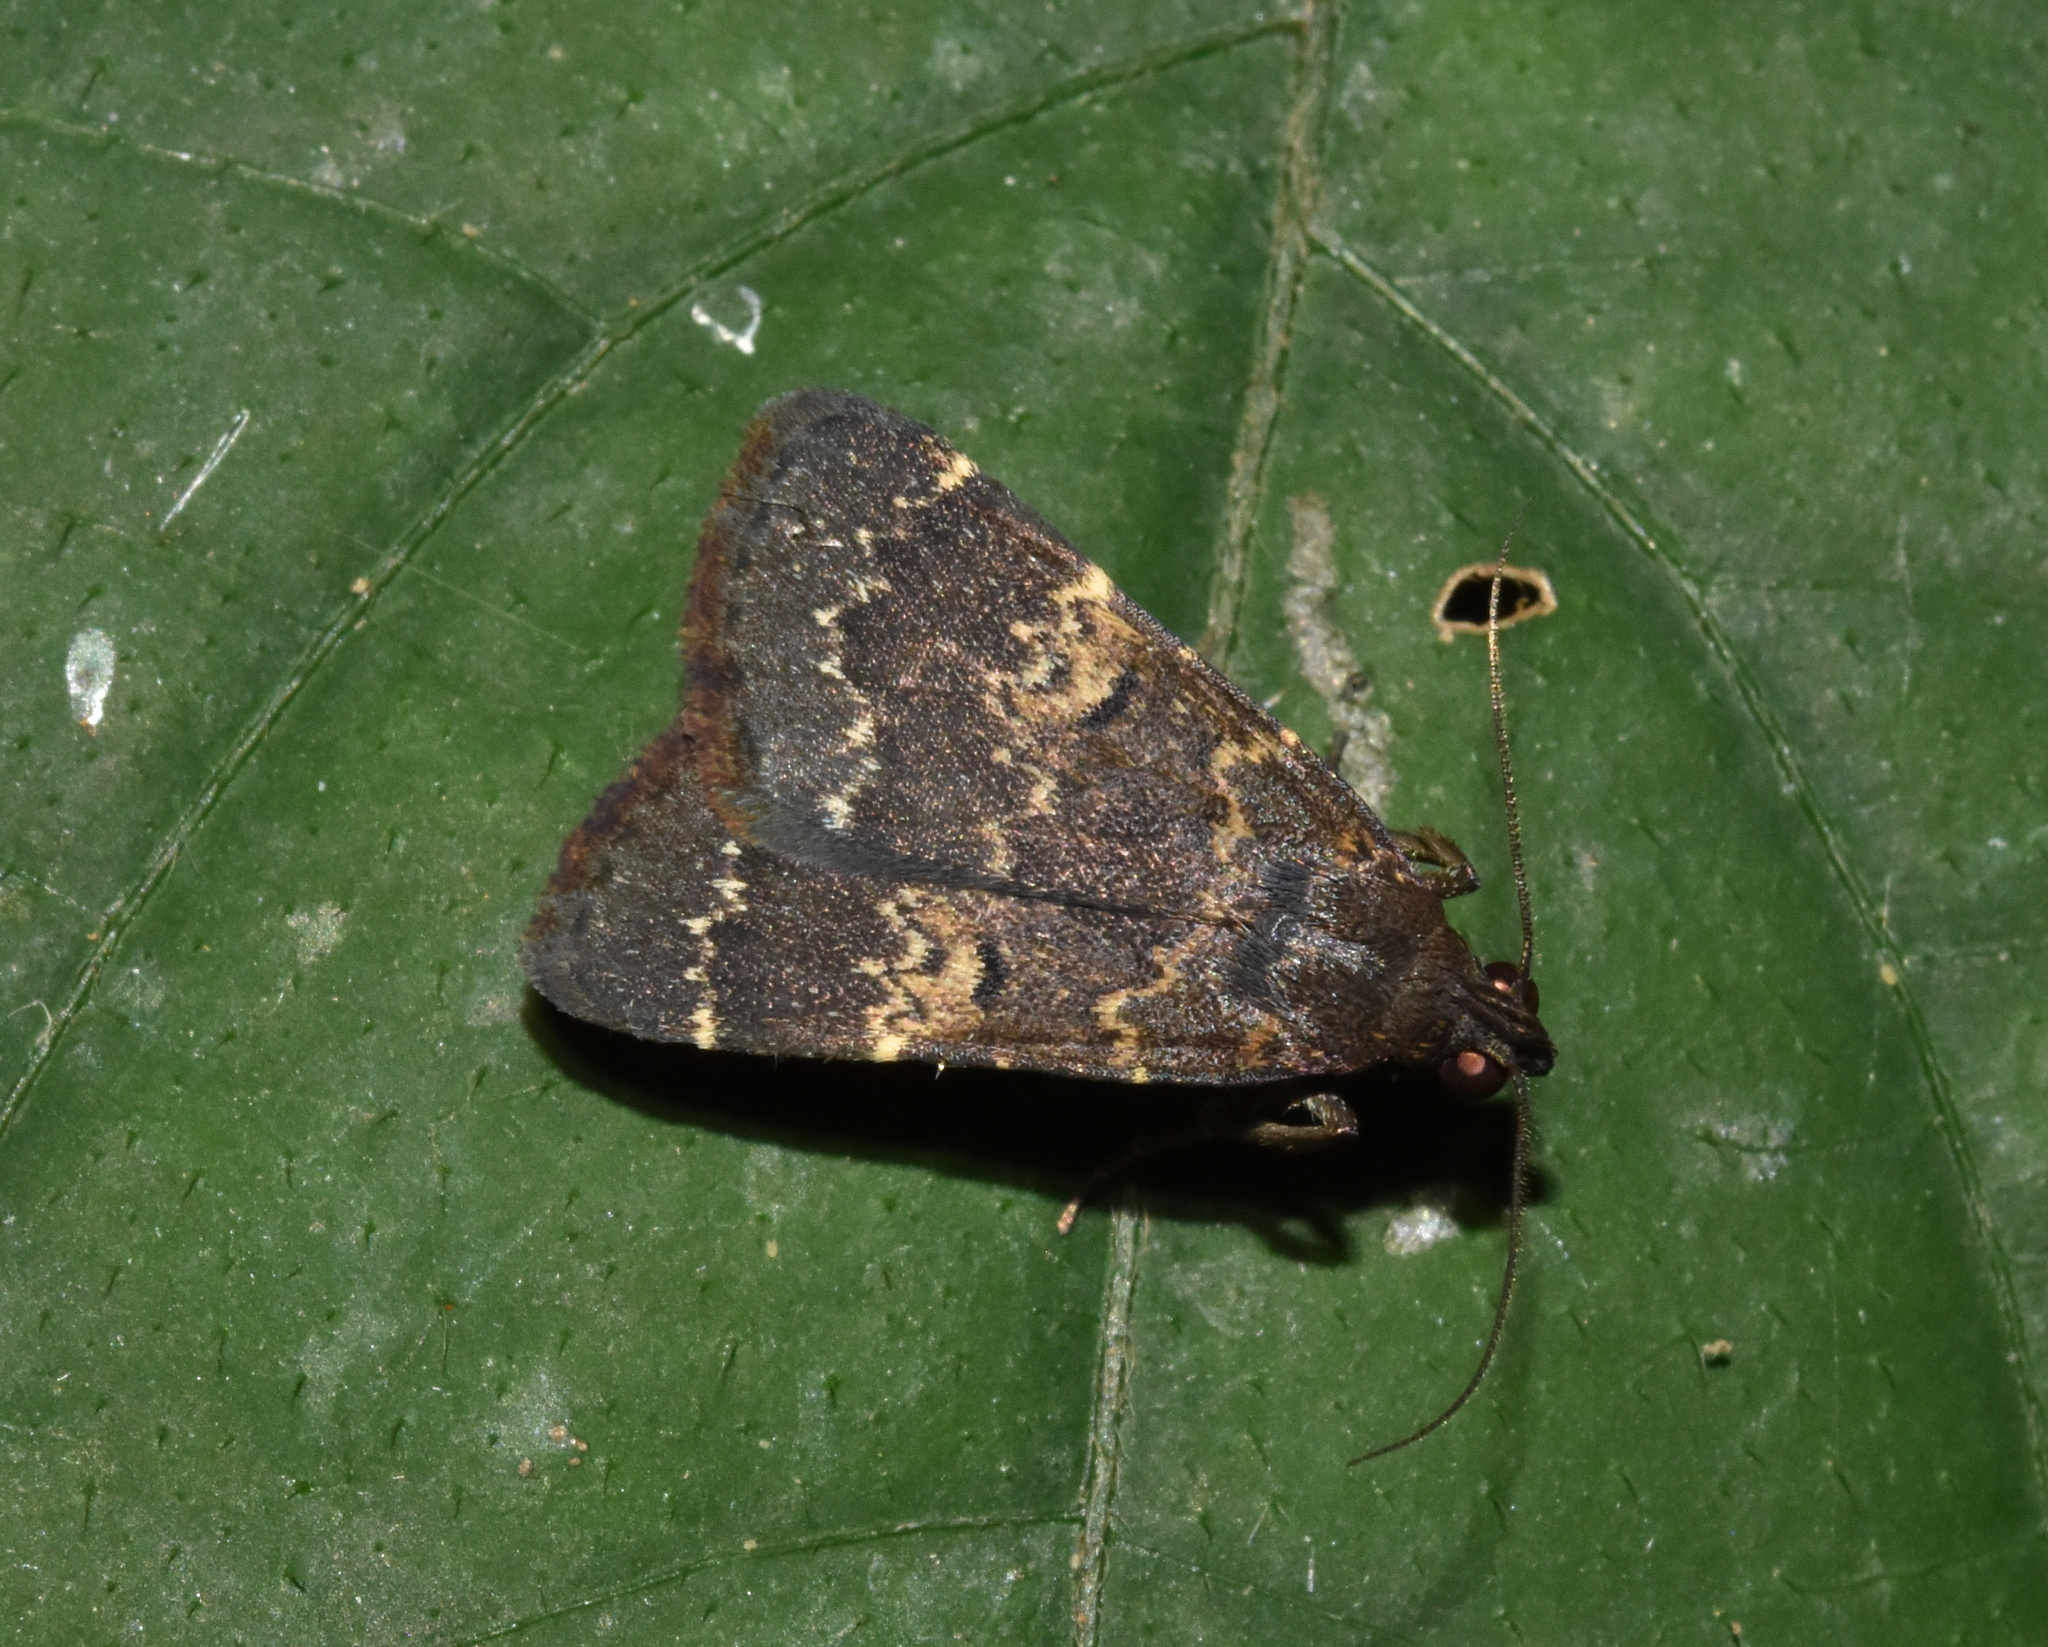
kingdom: Animalia
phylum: Arthropoda
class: Insecta
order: Lepidoptera
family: Erebidae
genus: Hydrillodes
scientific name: Hydrillodes uliginosalis
